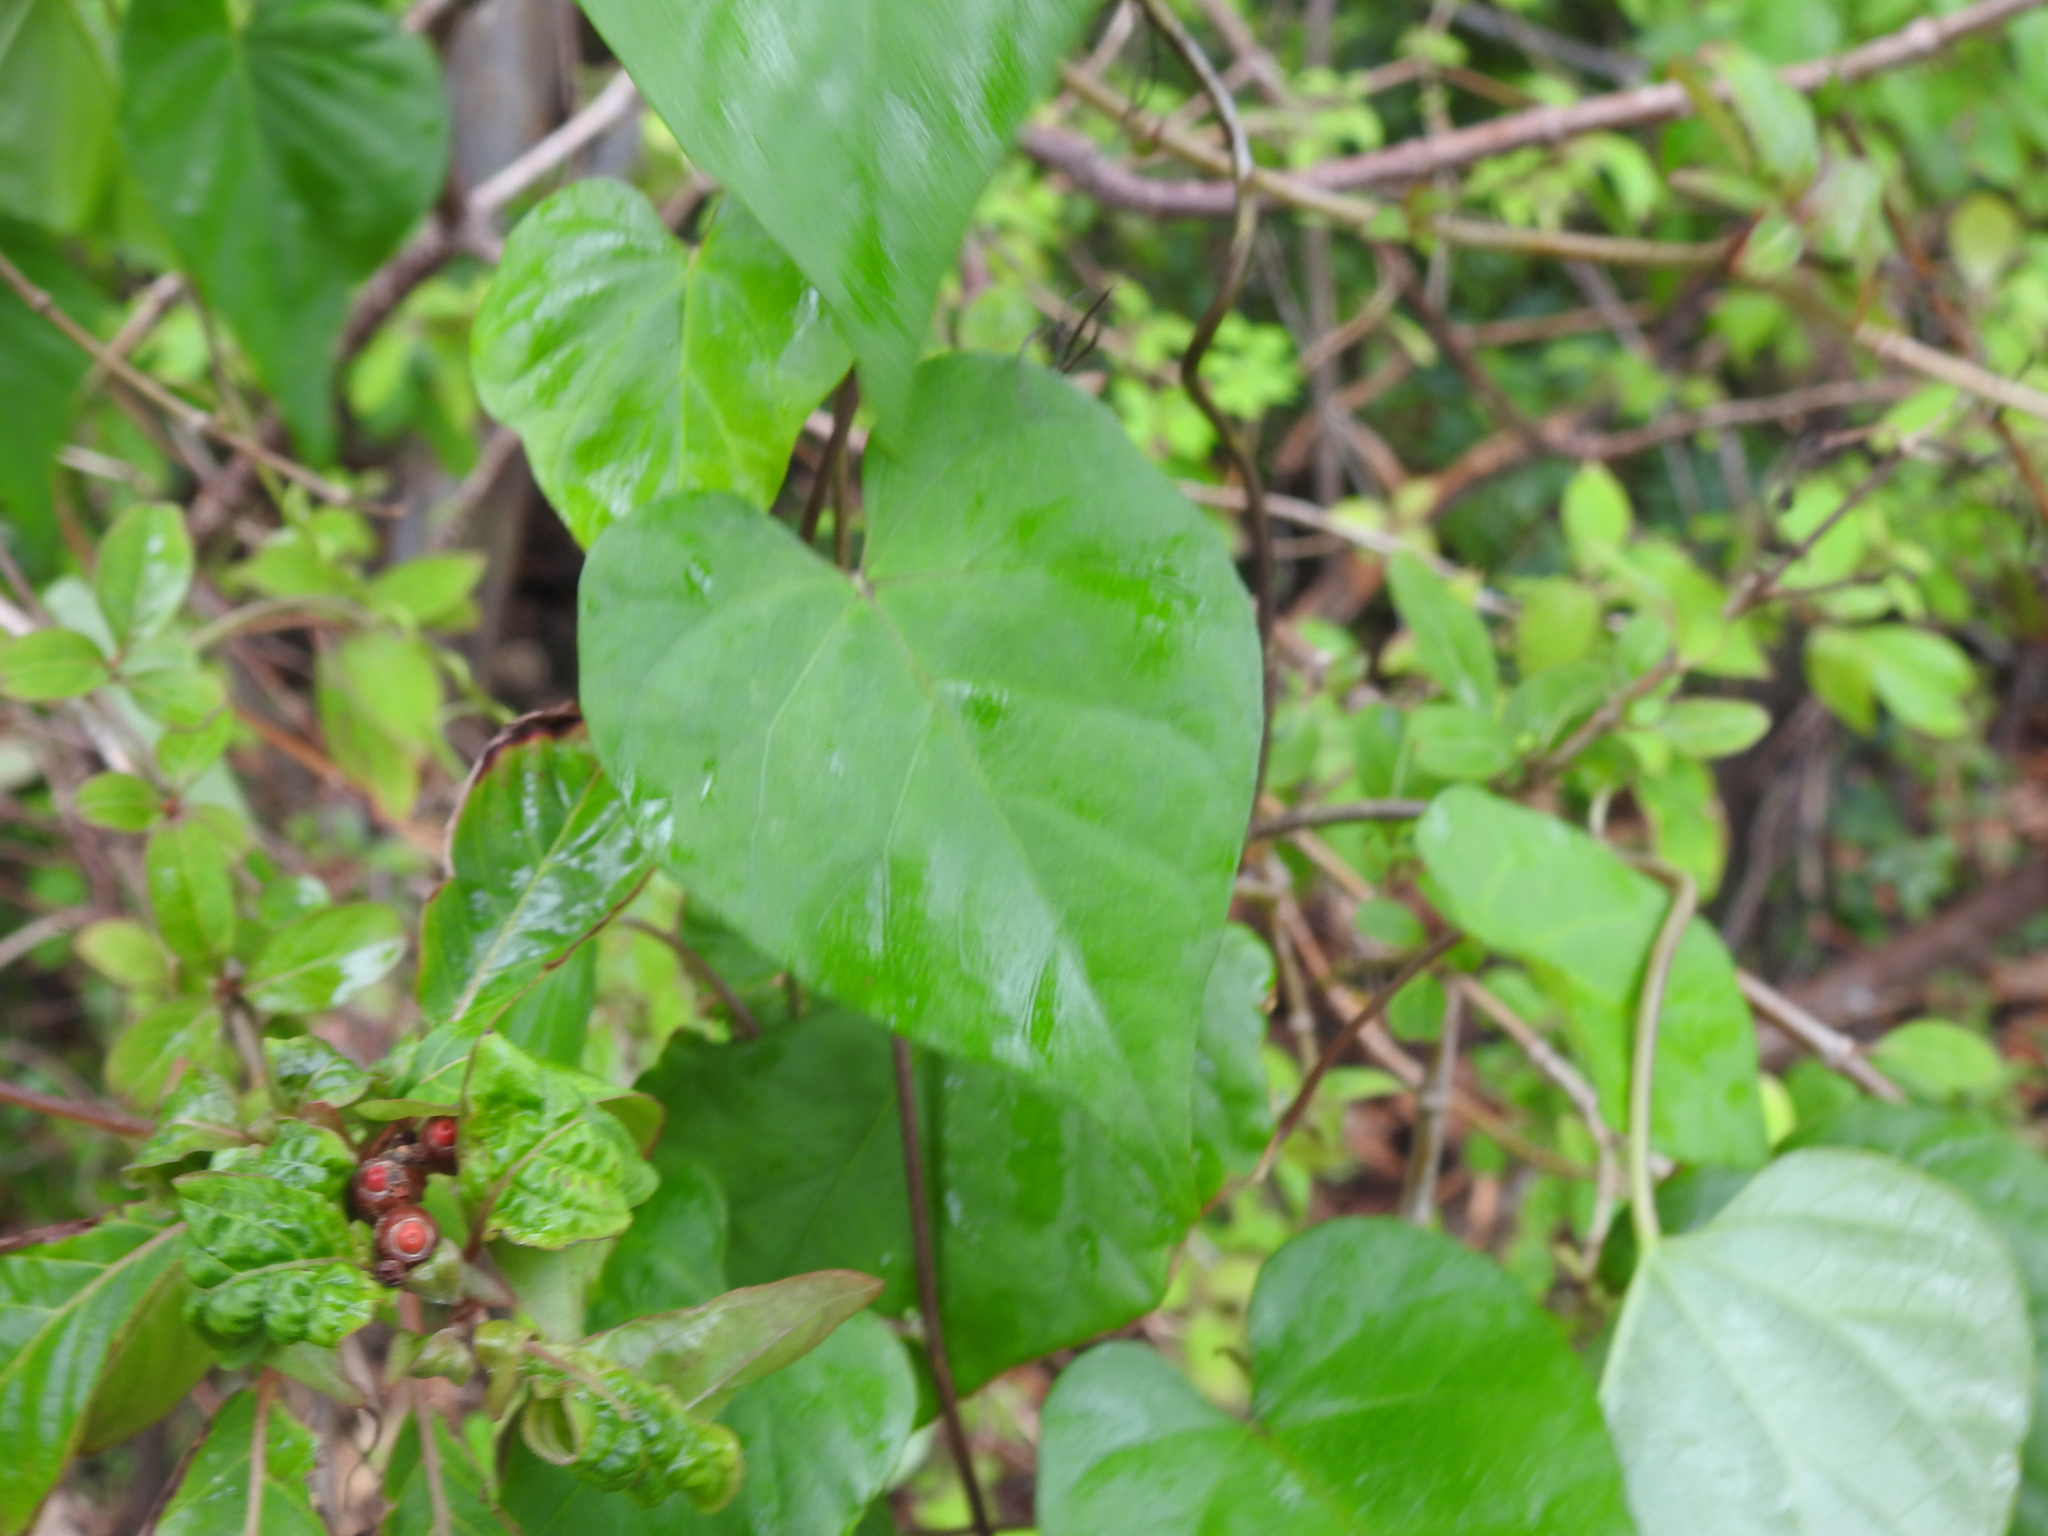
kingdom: Plantae
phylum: Tracheophyta
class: Magnoliopsida
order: Solanales
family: Convolvulaceae
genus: Ipomoea
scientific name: Ipomoea indica
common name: Blue dawnflower
